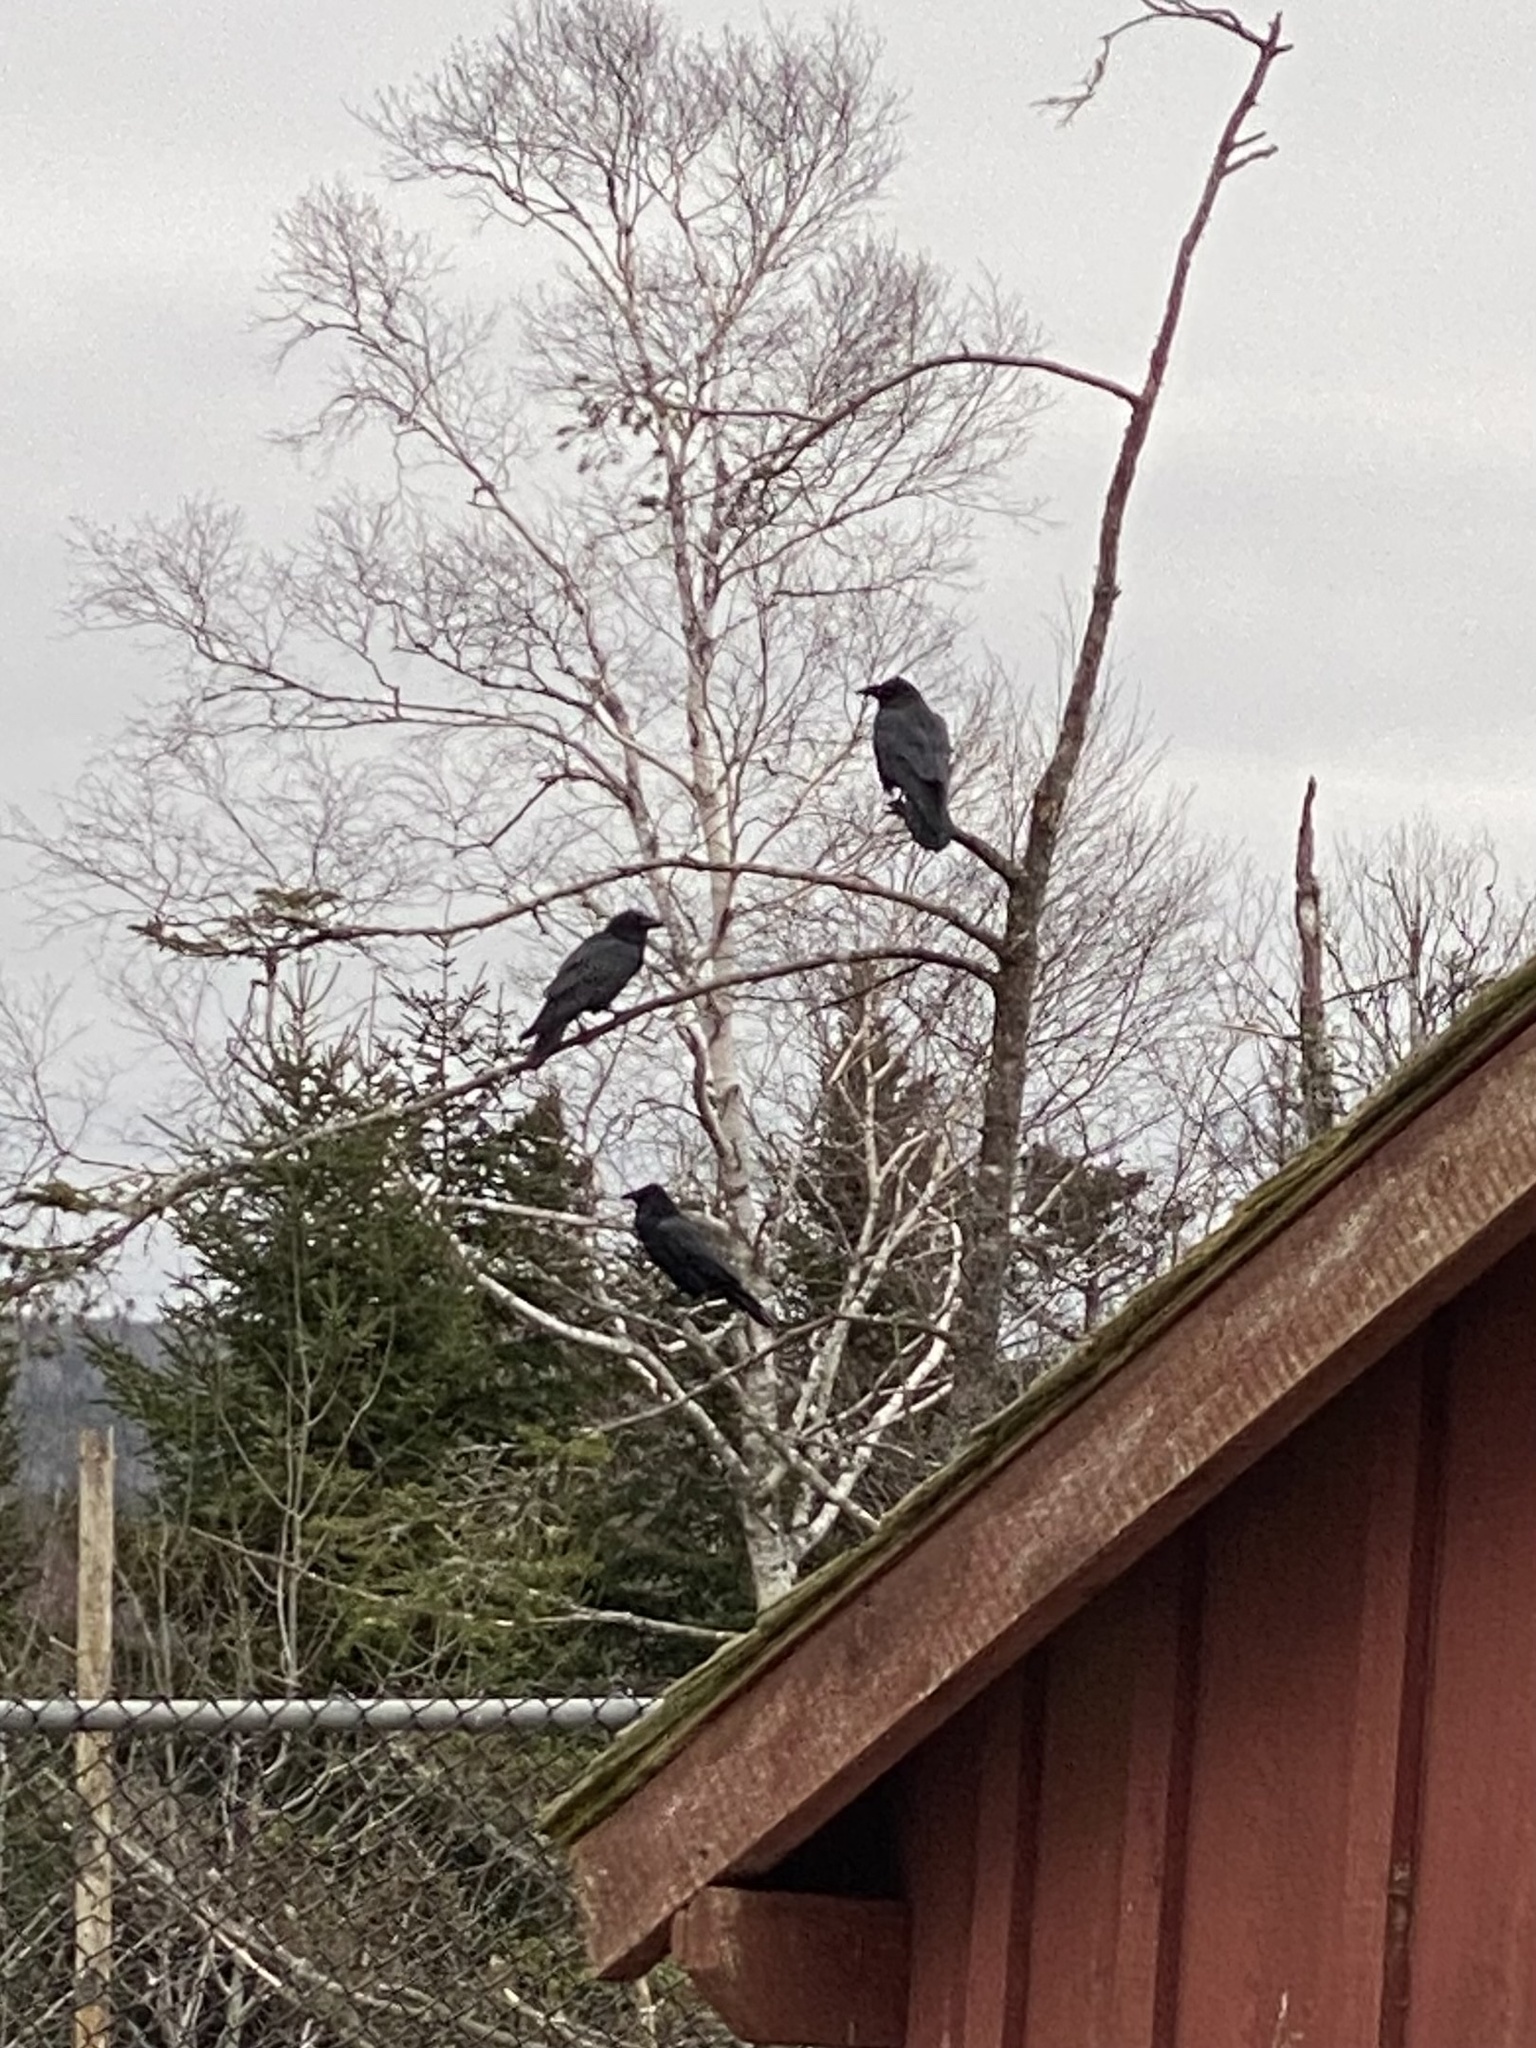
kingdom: Animalia
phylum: Chordata
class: Aves
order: Passeriformes
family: Corvidae
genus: Corvus
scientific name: Corvus corax
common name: Common raven
